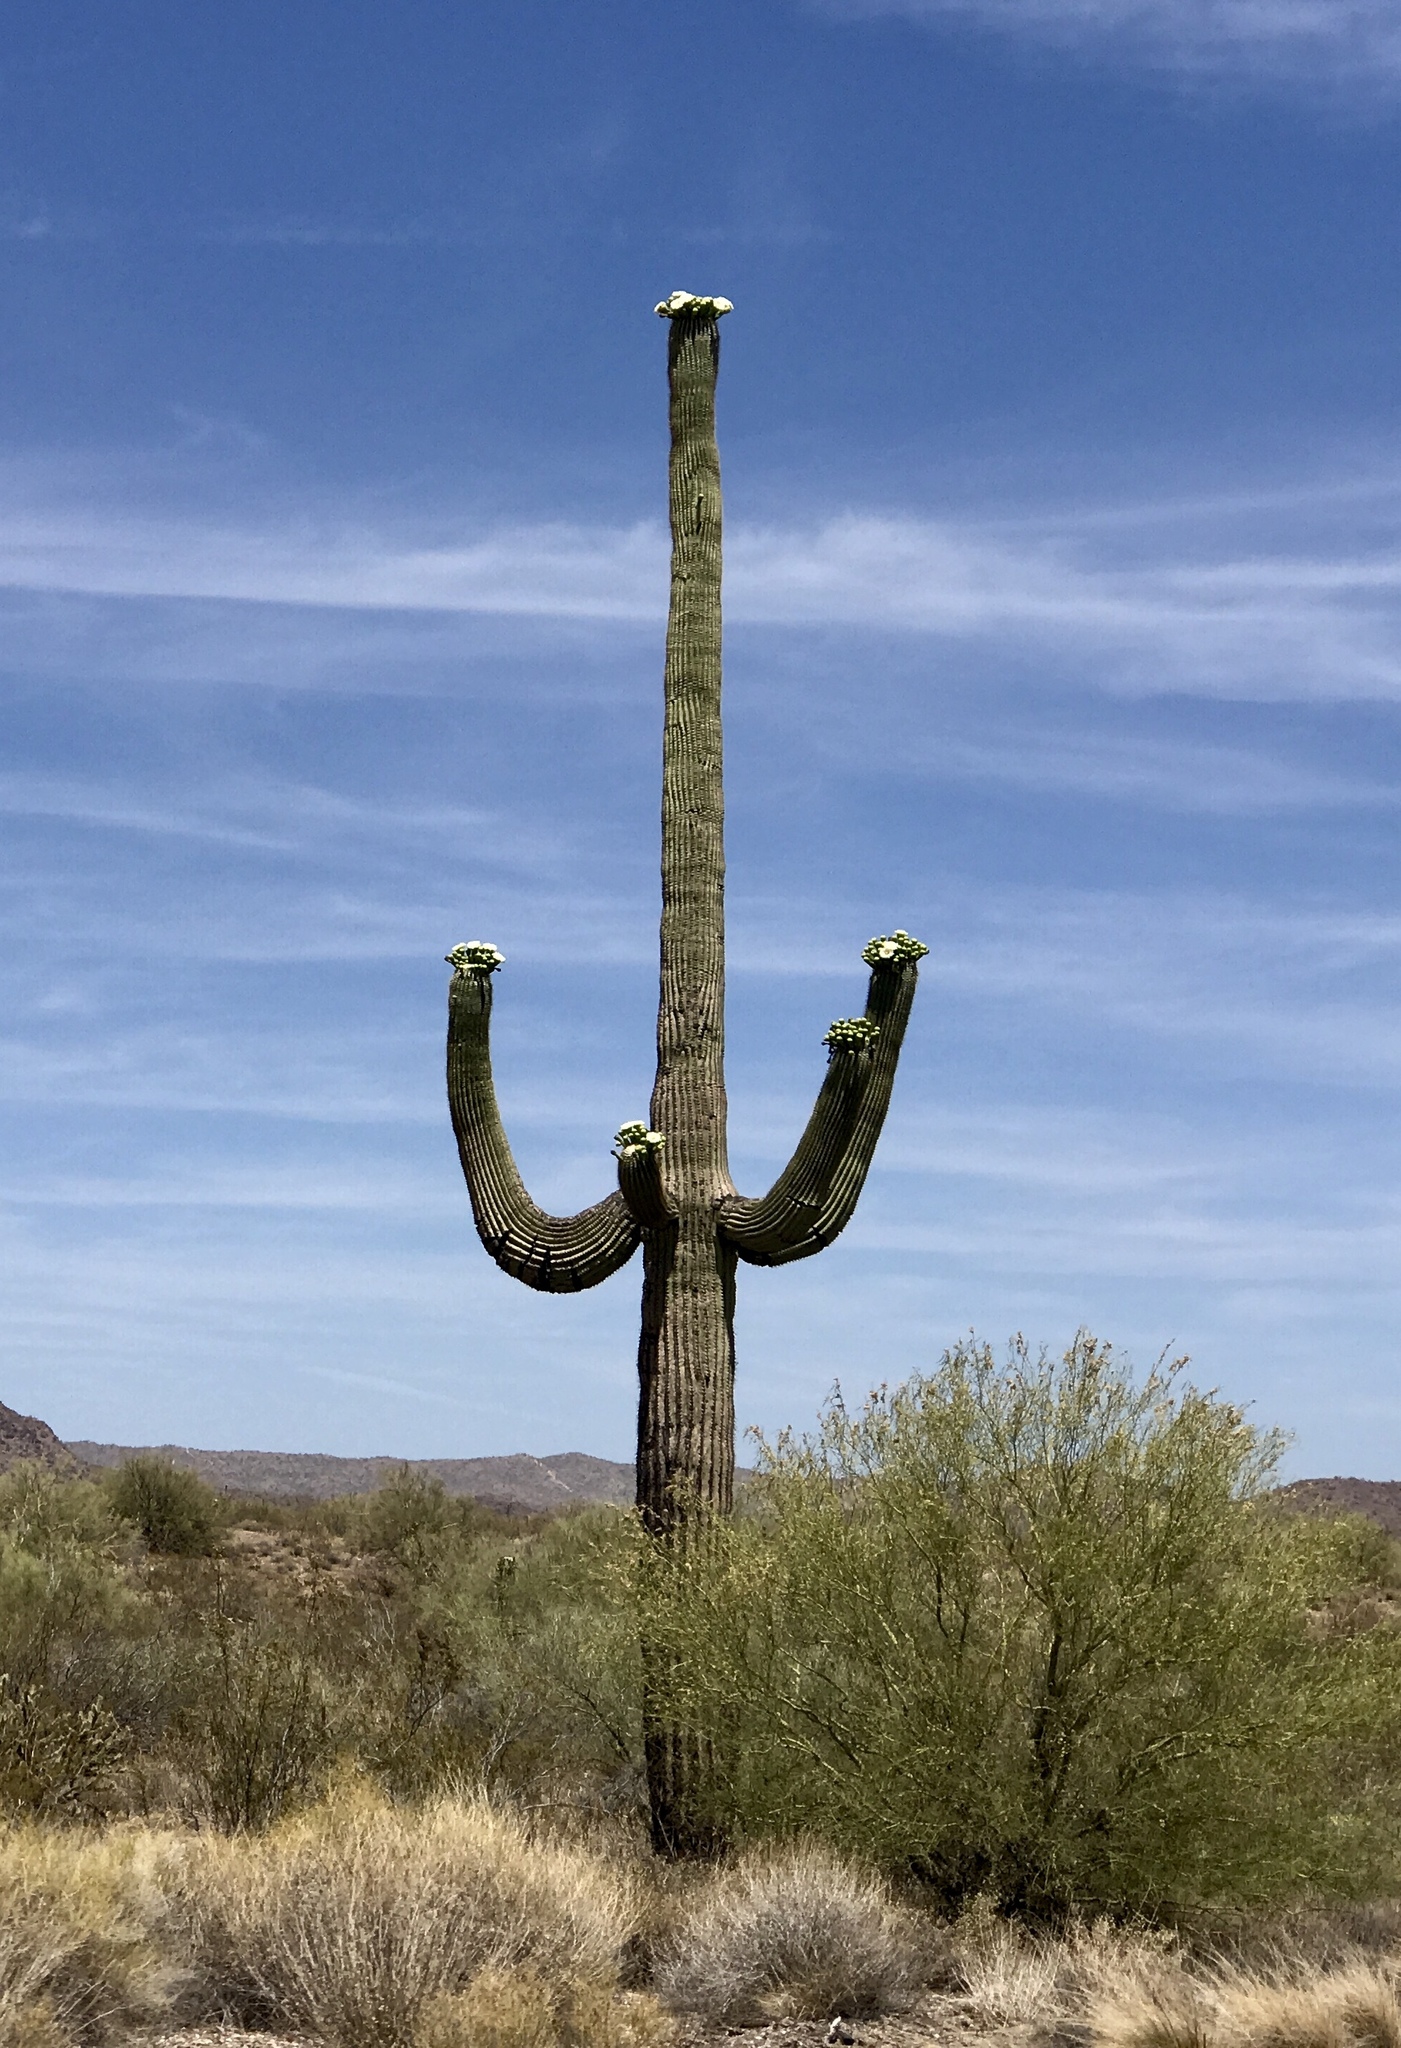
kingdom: Plantae
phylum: Tracheophyta
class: Magnoliopsida
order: Caryophyllales
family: Cactaceae
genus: Carnegiea
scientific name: Carnegiea gigantea
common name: Saguaro
